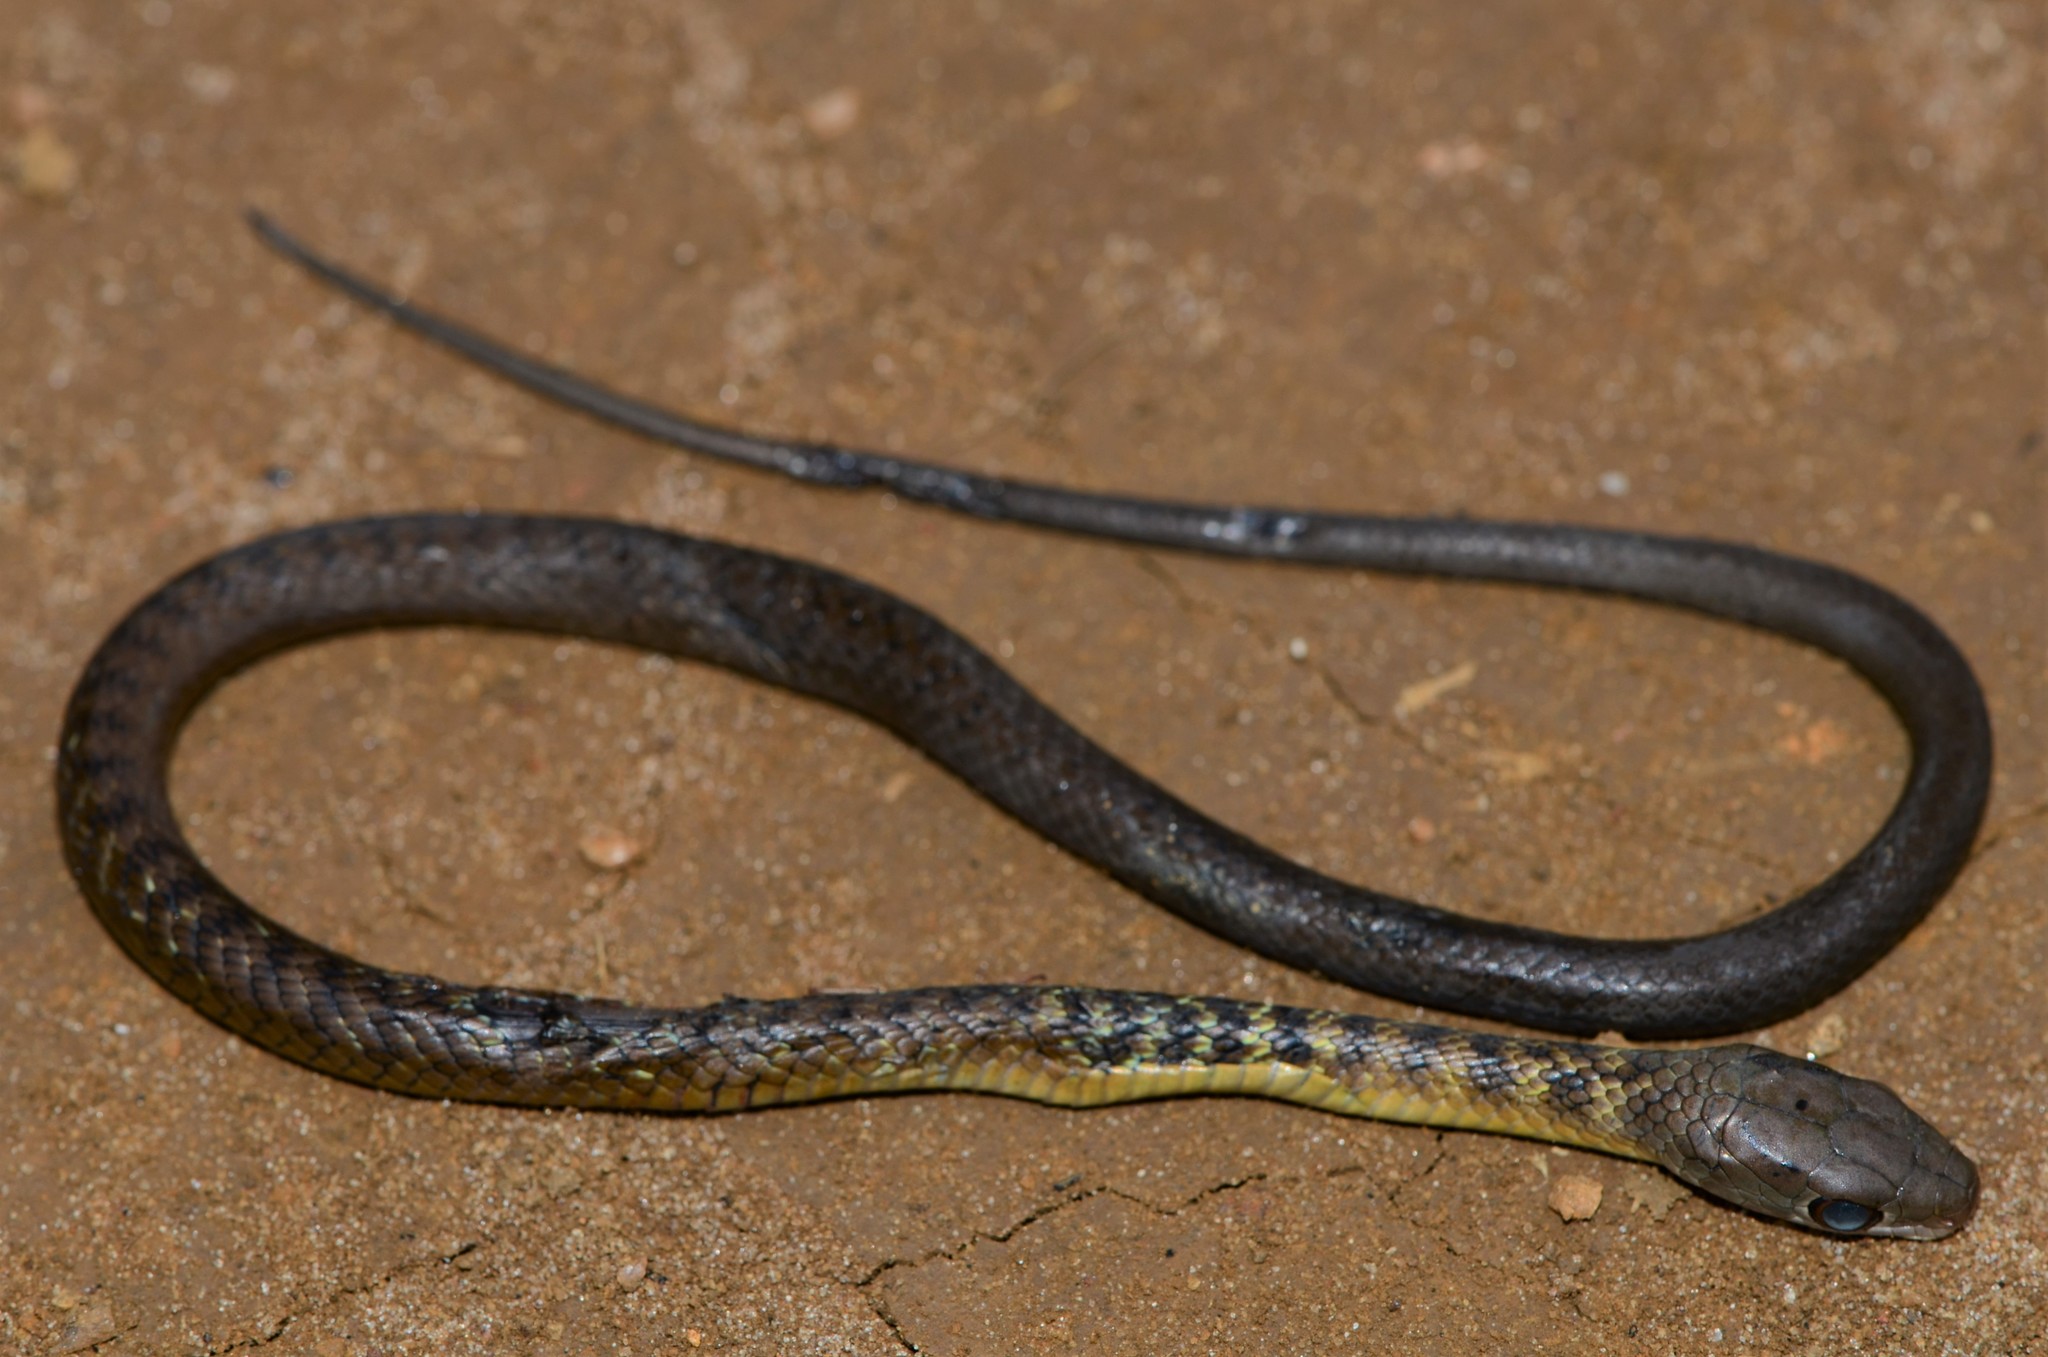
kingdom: Animalia
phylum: Chordata
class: Squamata
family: Colubridae
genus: Philothamnus
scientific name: Philothamnus heterodermus
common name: Emerald green snake
